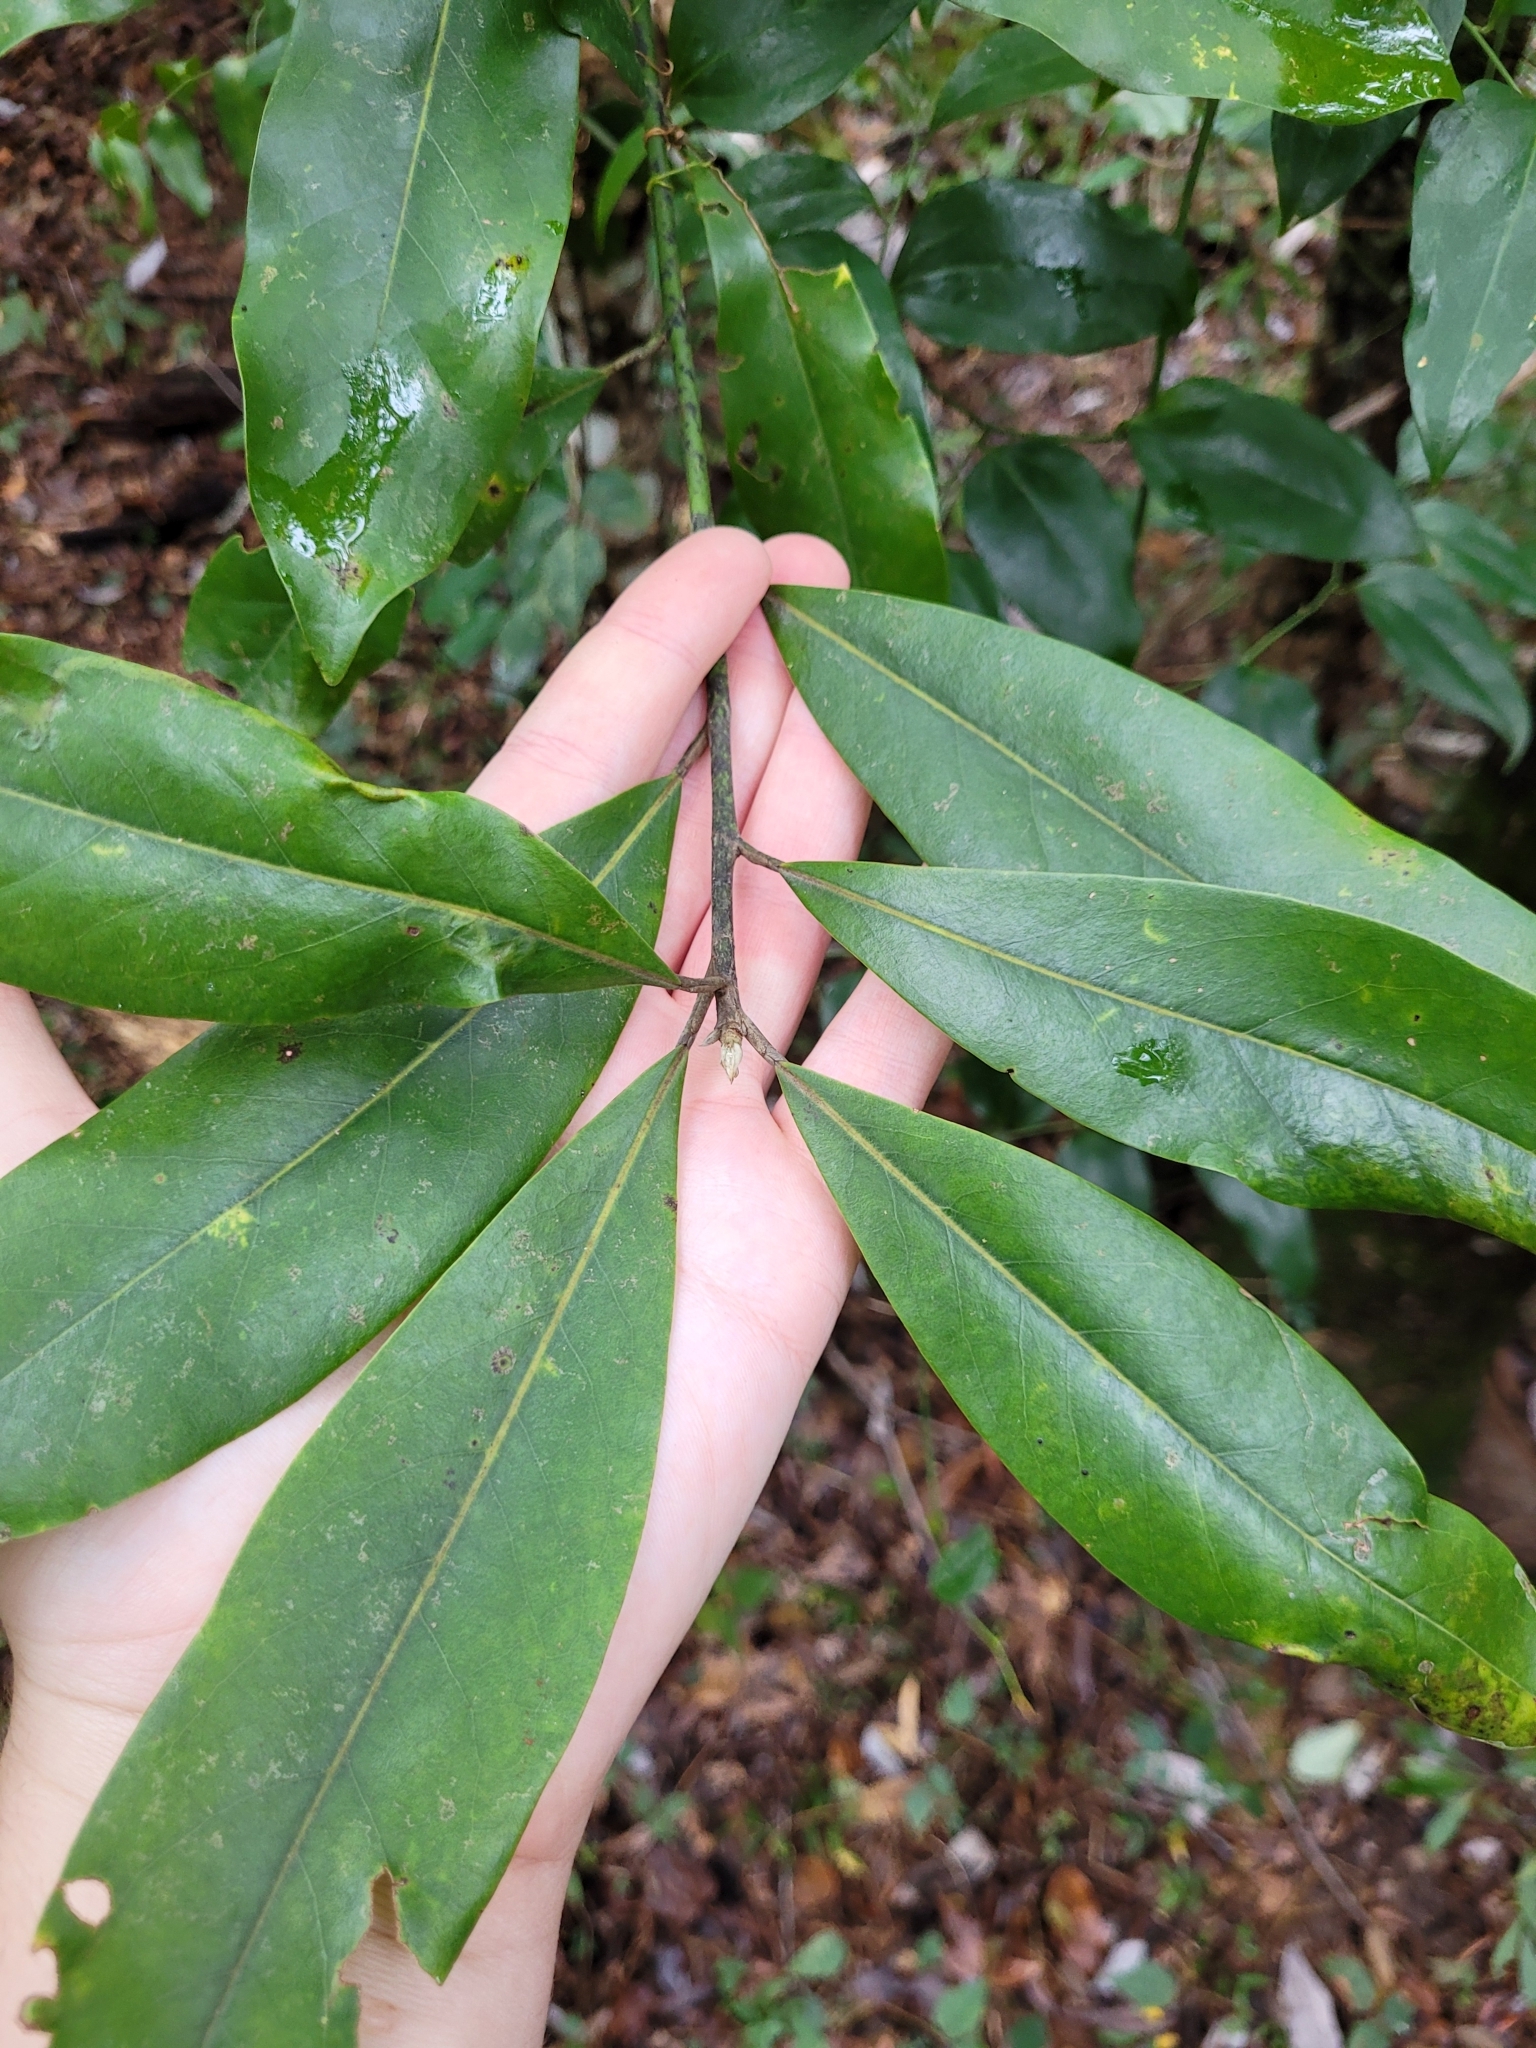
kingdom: Plantae
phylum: Tracheophyta
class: Magnoliopsida
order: Magnoliales
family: Magnoliaceae
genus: Magnolia
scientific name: Magnolia virginiana
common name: Swamp bay
